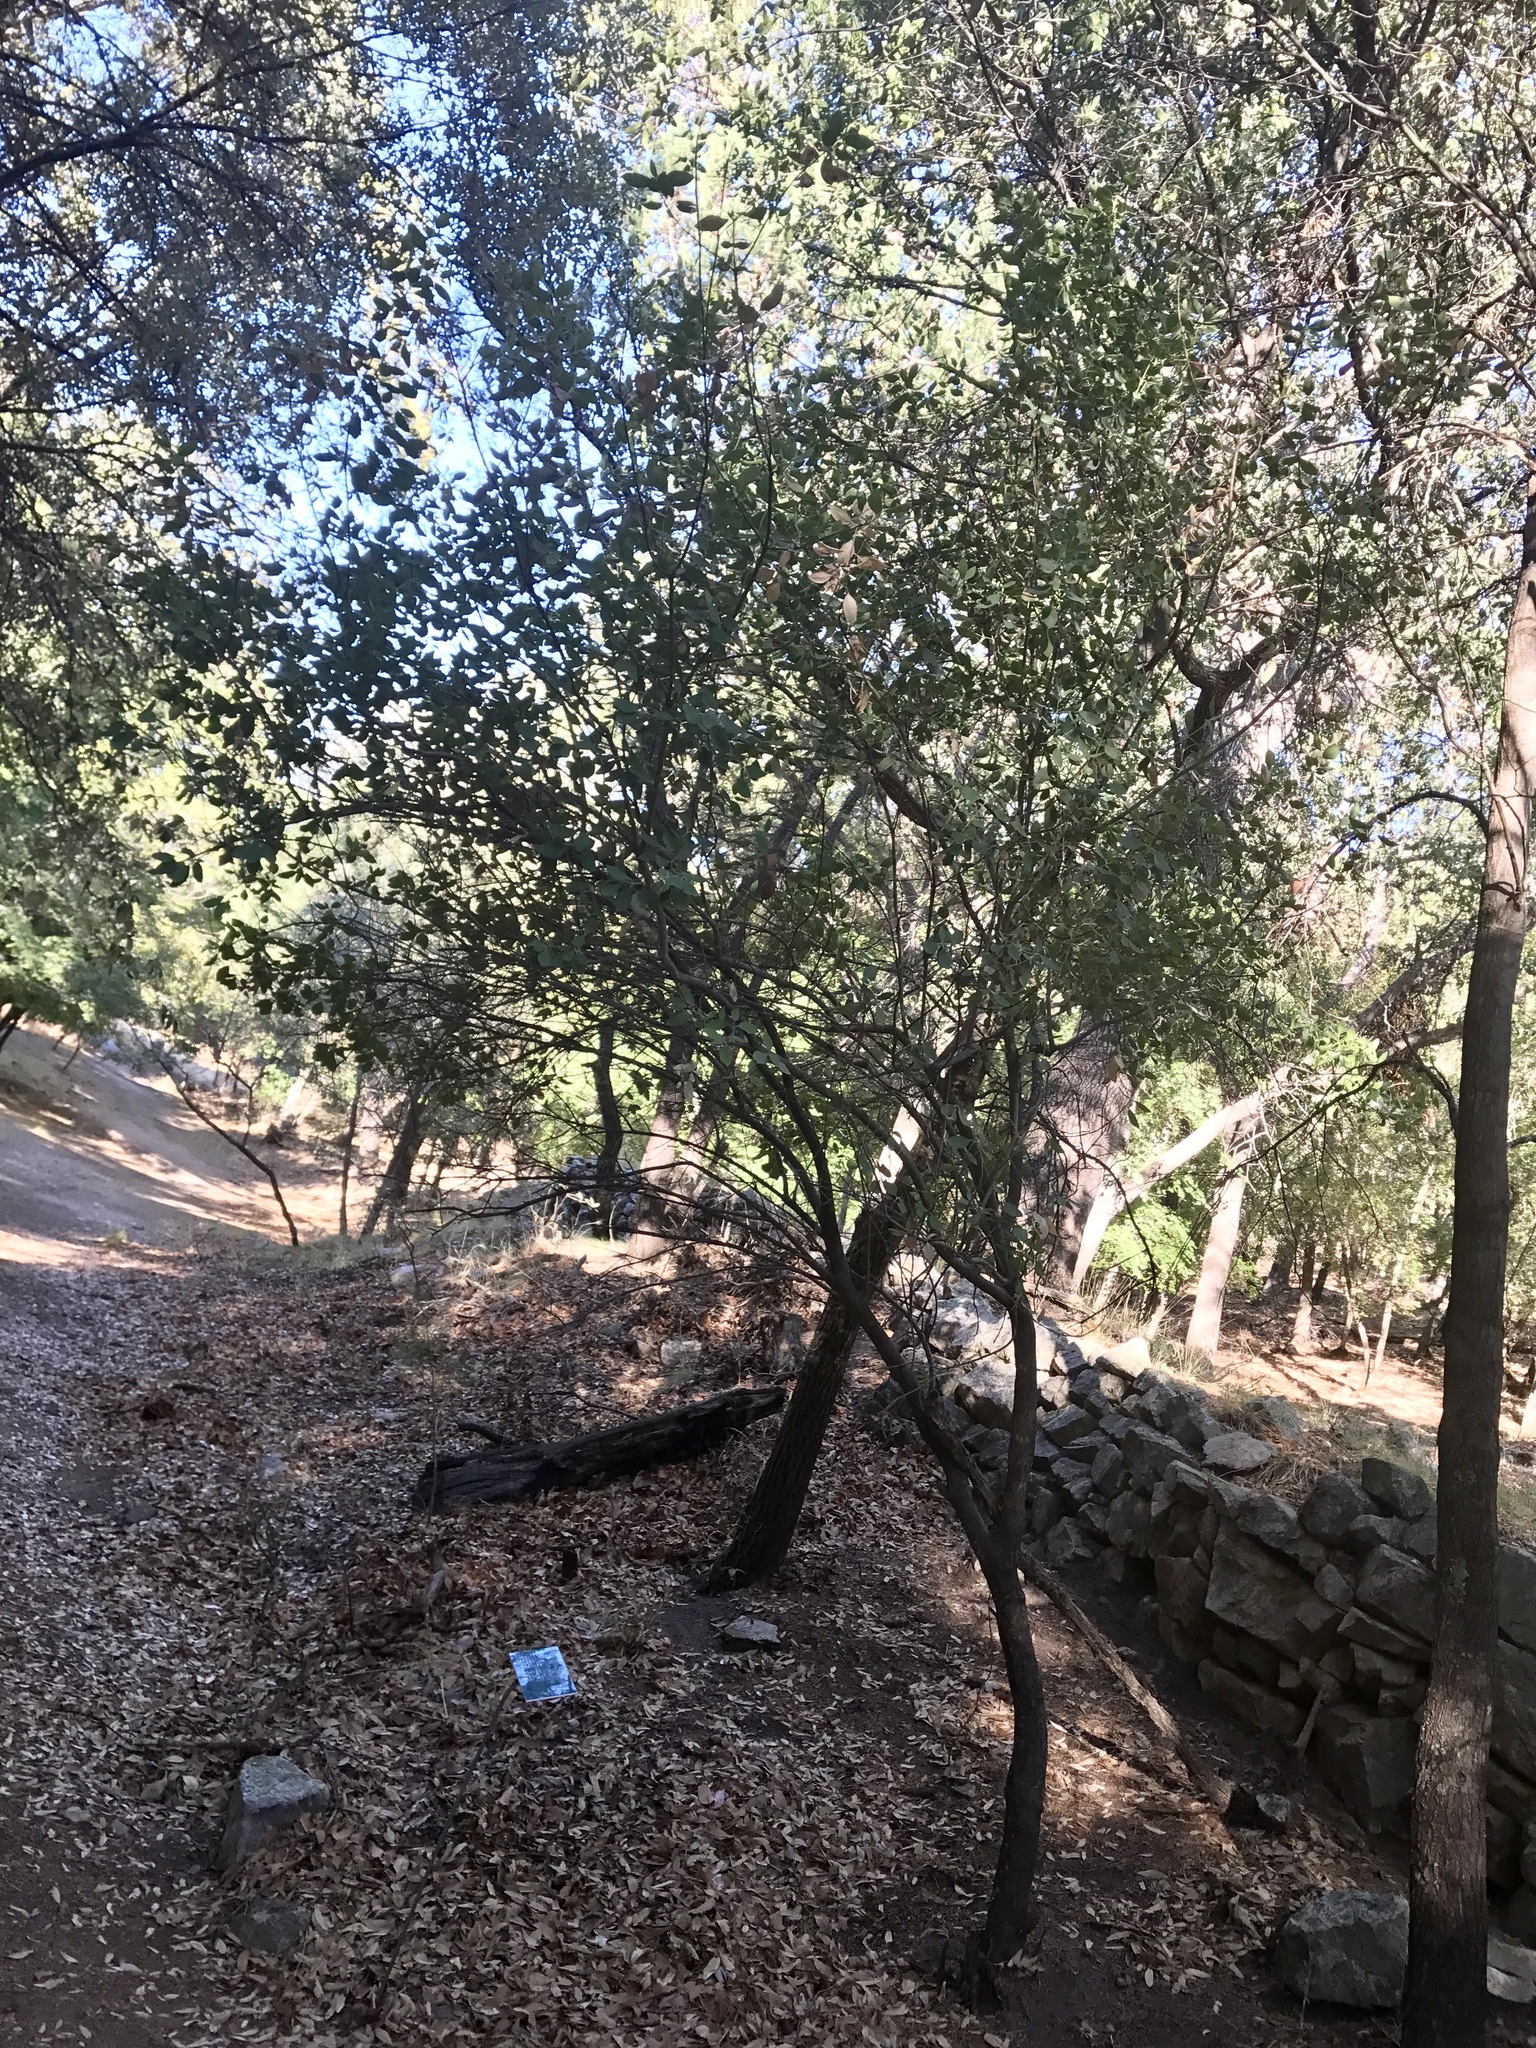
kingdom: Plantae
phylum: Tracheophyta
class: Magnoliopsida
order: Garryales
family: Garryaceae
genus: Garrya
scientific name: Garrya wrightii
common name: Wright's silktassel
